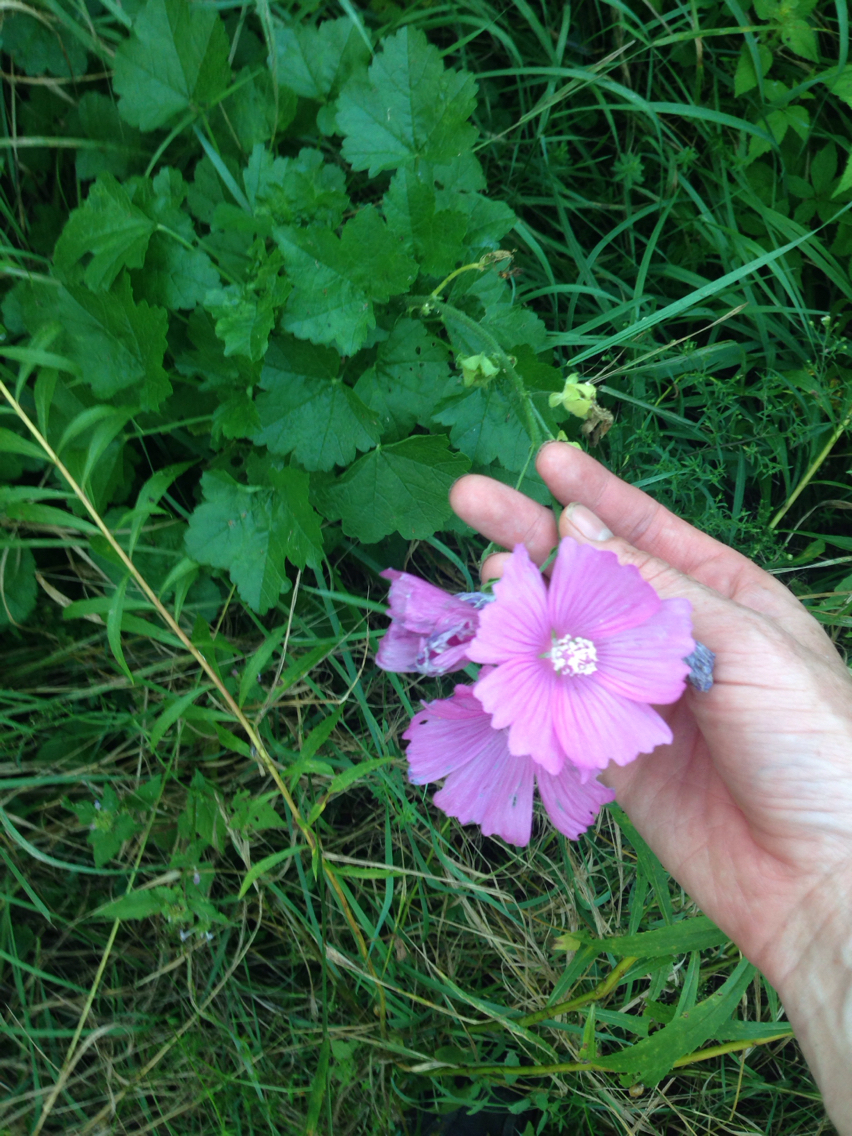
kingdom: Plantae
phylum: Tracheophyta
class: Magnoliopsida
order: Malvales
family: Malvaceae
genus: Malva
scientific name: Malva
